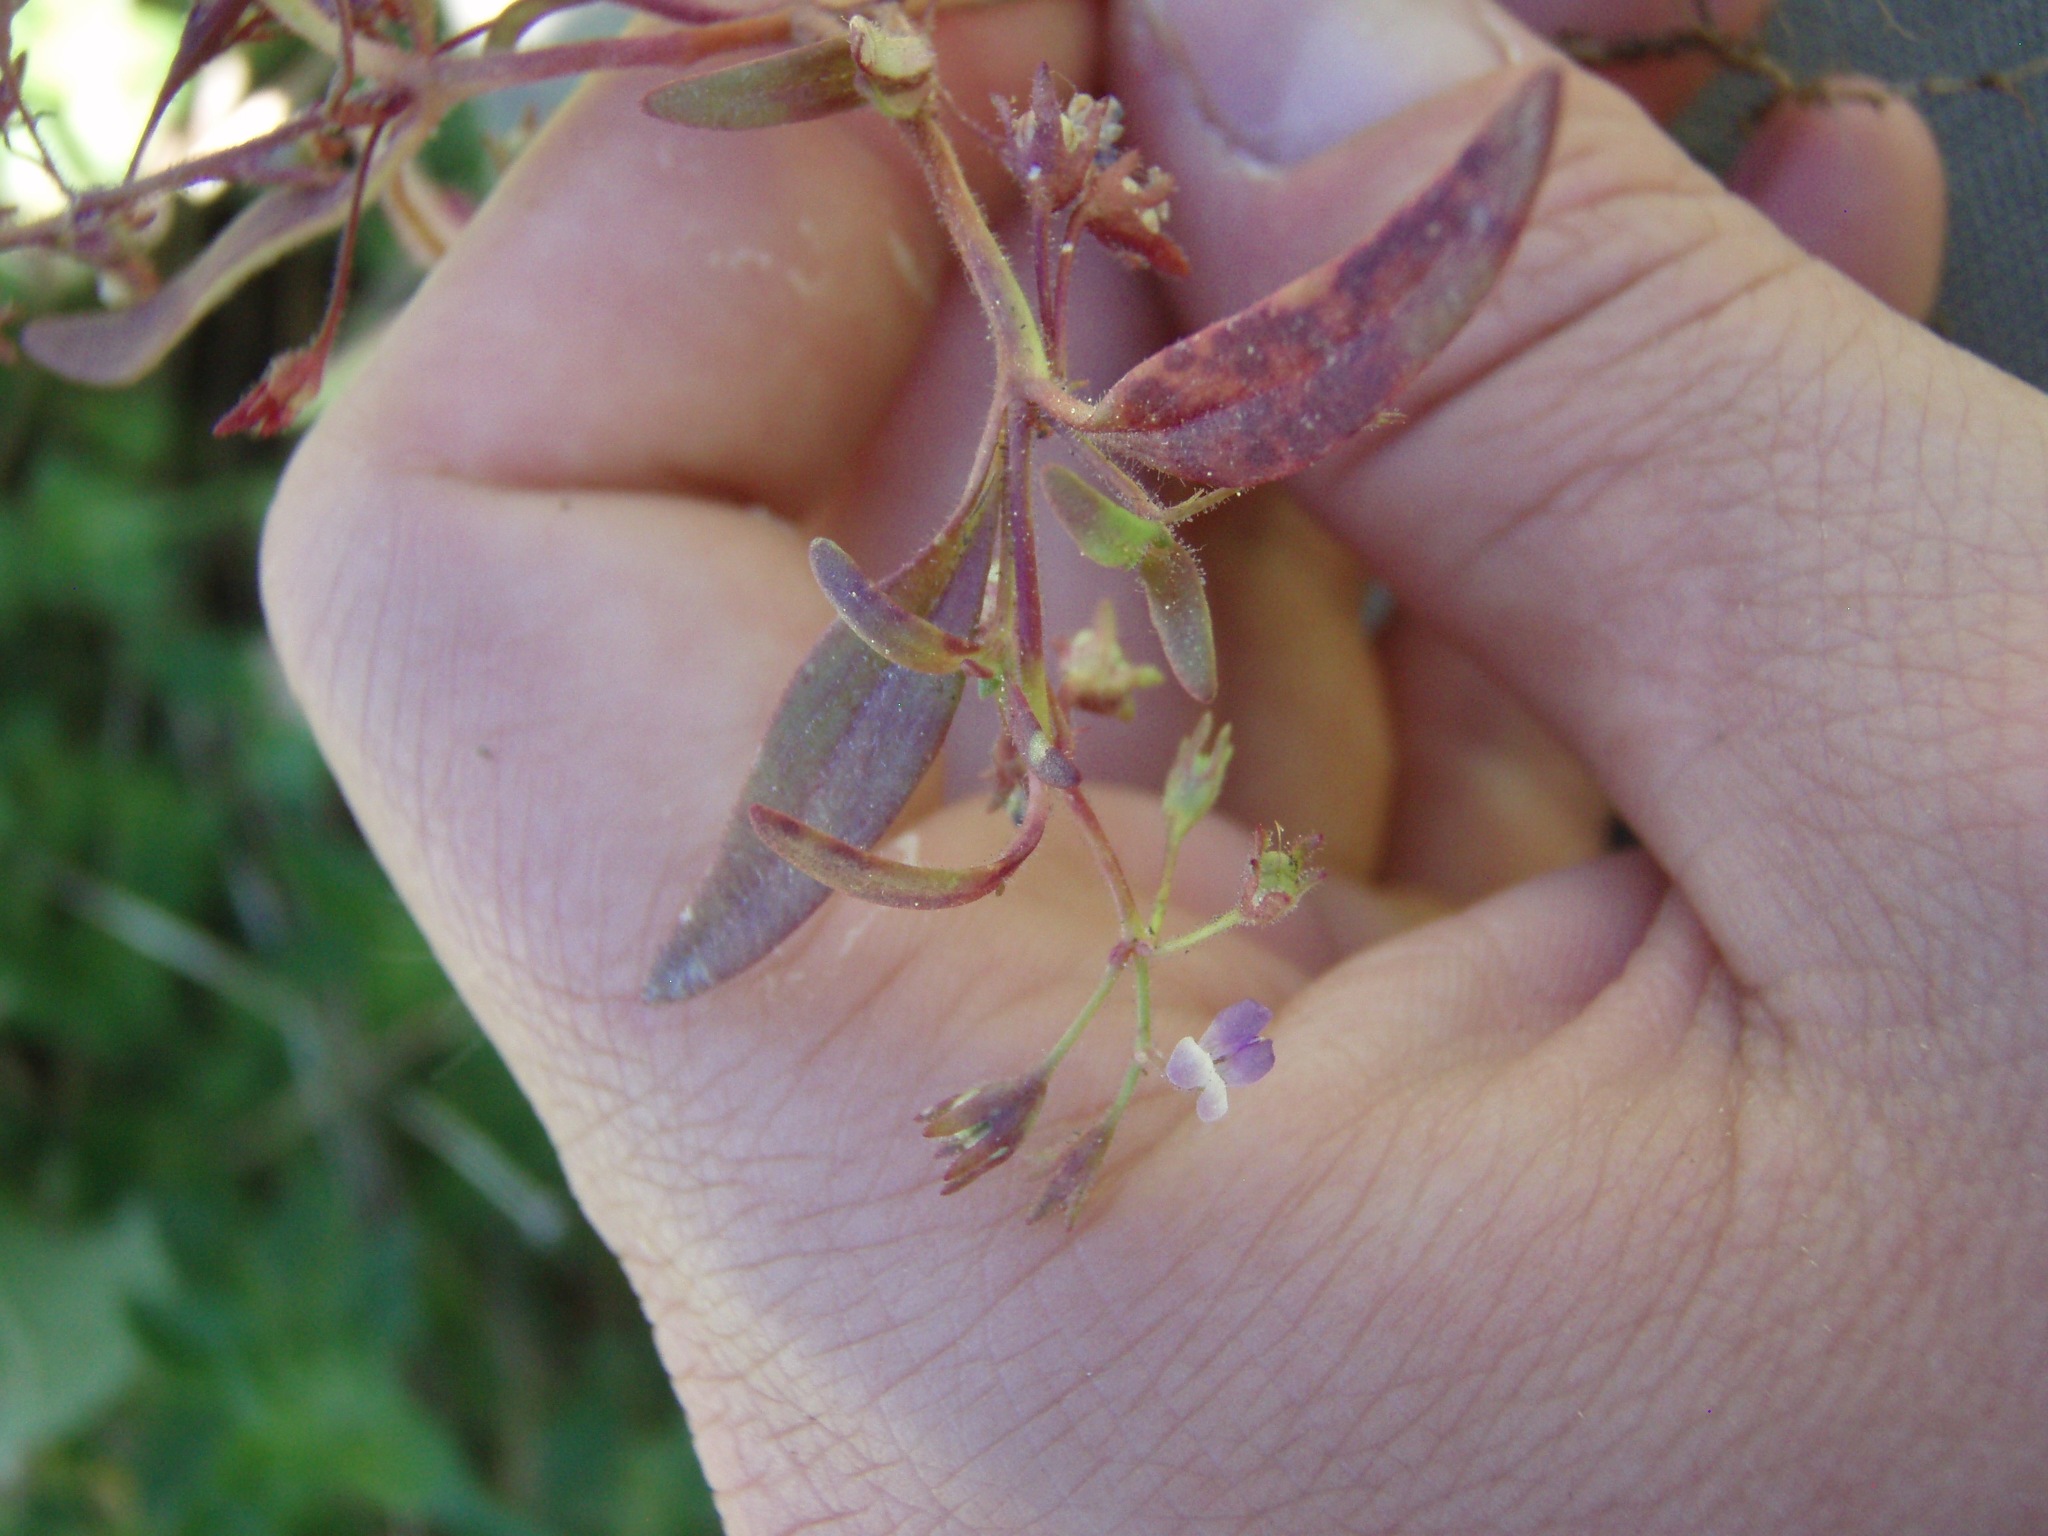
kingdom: Plantae
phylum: Tracheophyta
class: Magnoliopsida
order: Lamiales
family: Plantaginaceae
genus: Collinsia
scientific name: Collinsia torreyi
